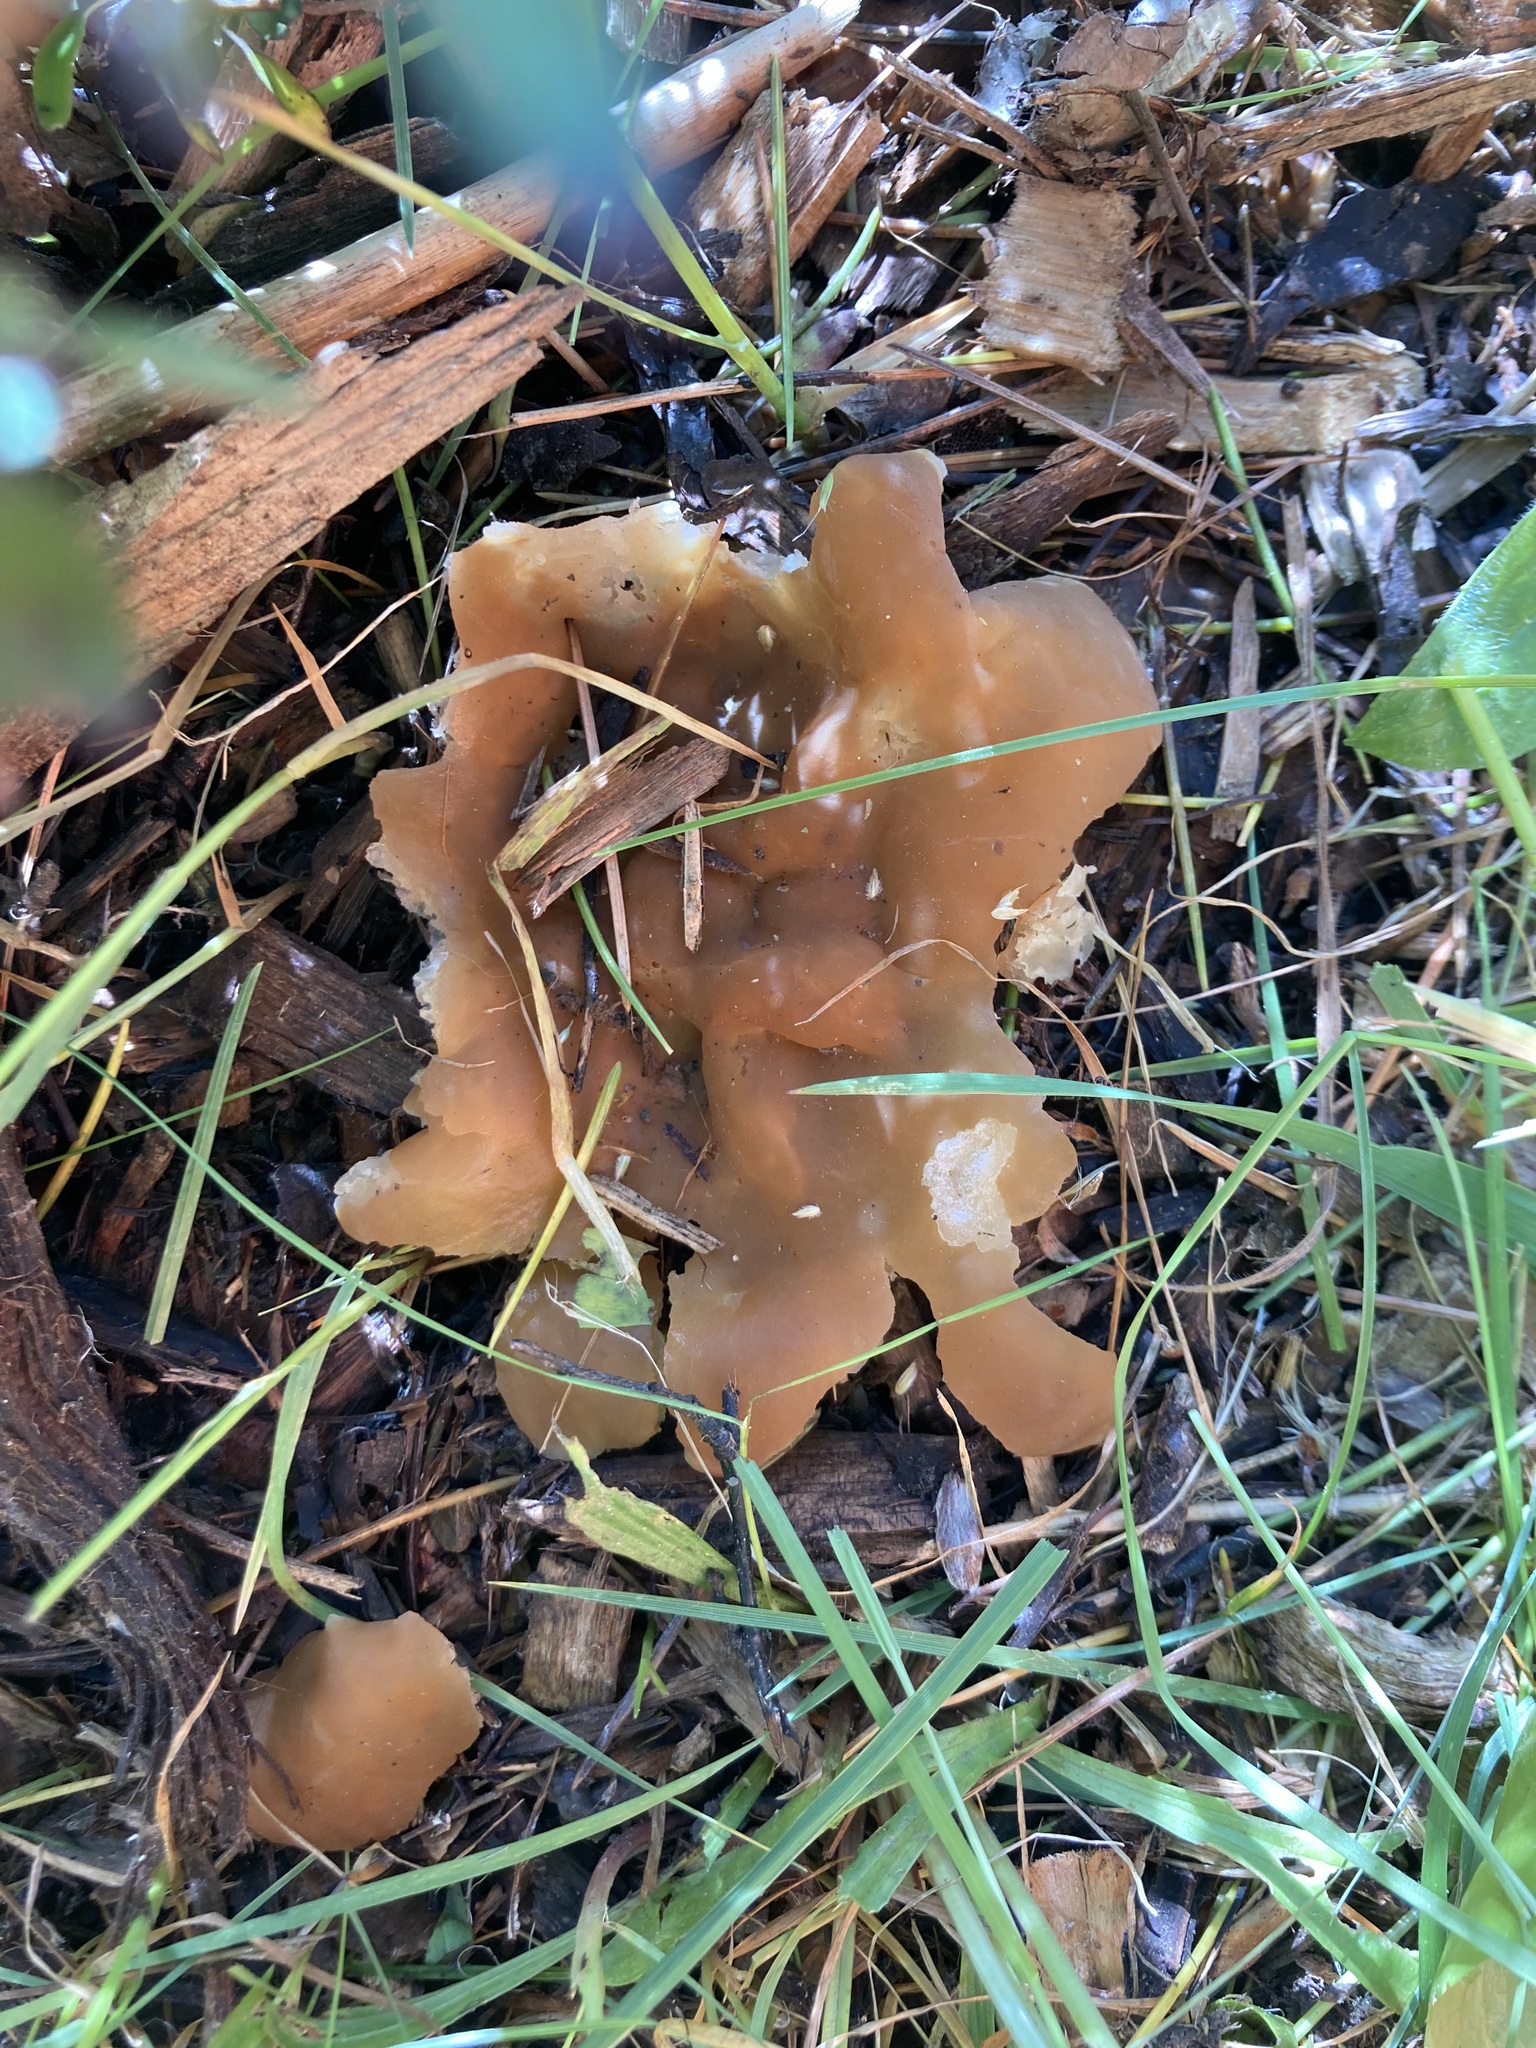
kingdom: Fungi
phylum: Ascomycota
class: Pezizomycetes
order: Pezizales
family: Pezizaceae
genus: Peziza
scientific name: Peziza varia
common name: Layered cup
